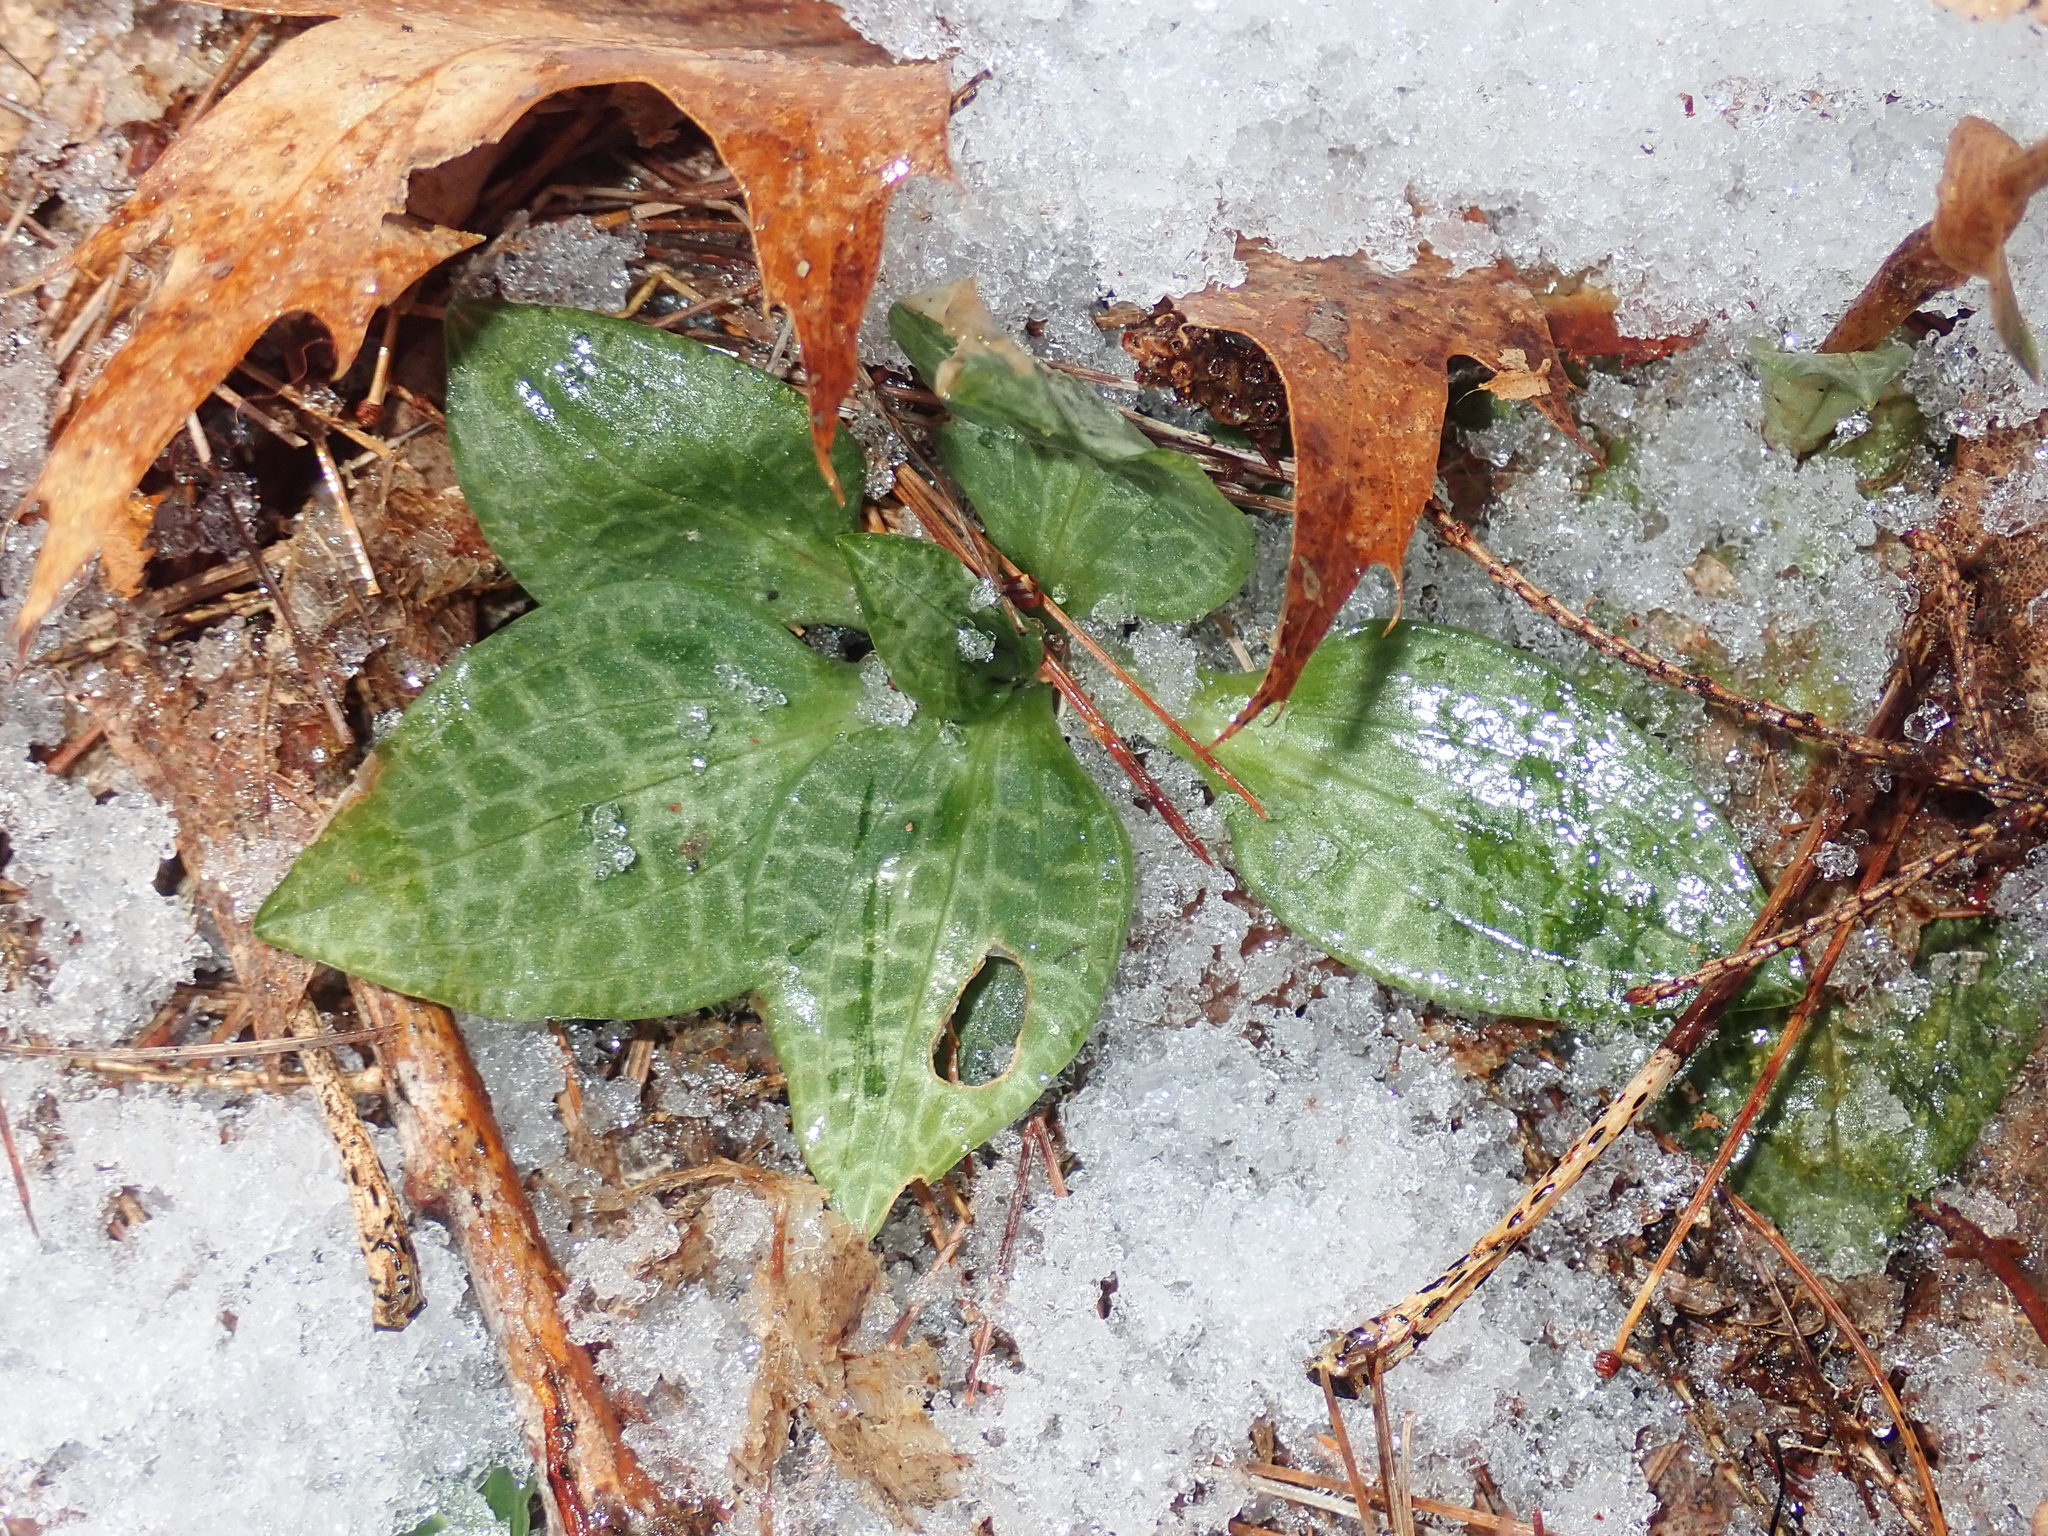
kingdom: Plantae
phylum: Tracheophyta
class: Liliopsida
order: Asparagales
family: Orchidaceae
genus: Goodyera
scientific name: Goodyera tesselata
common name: Checkered rattlesnake-plantain
